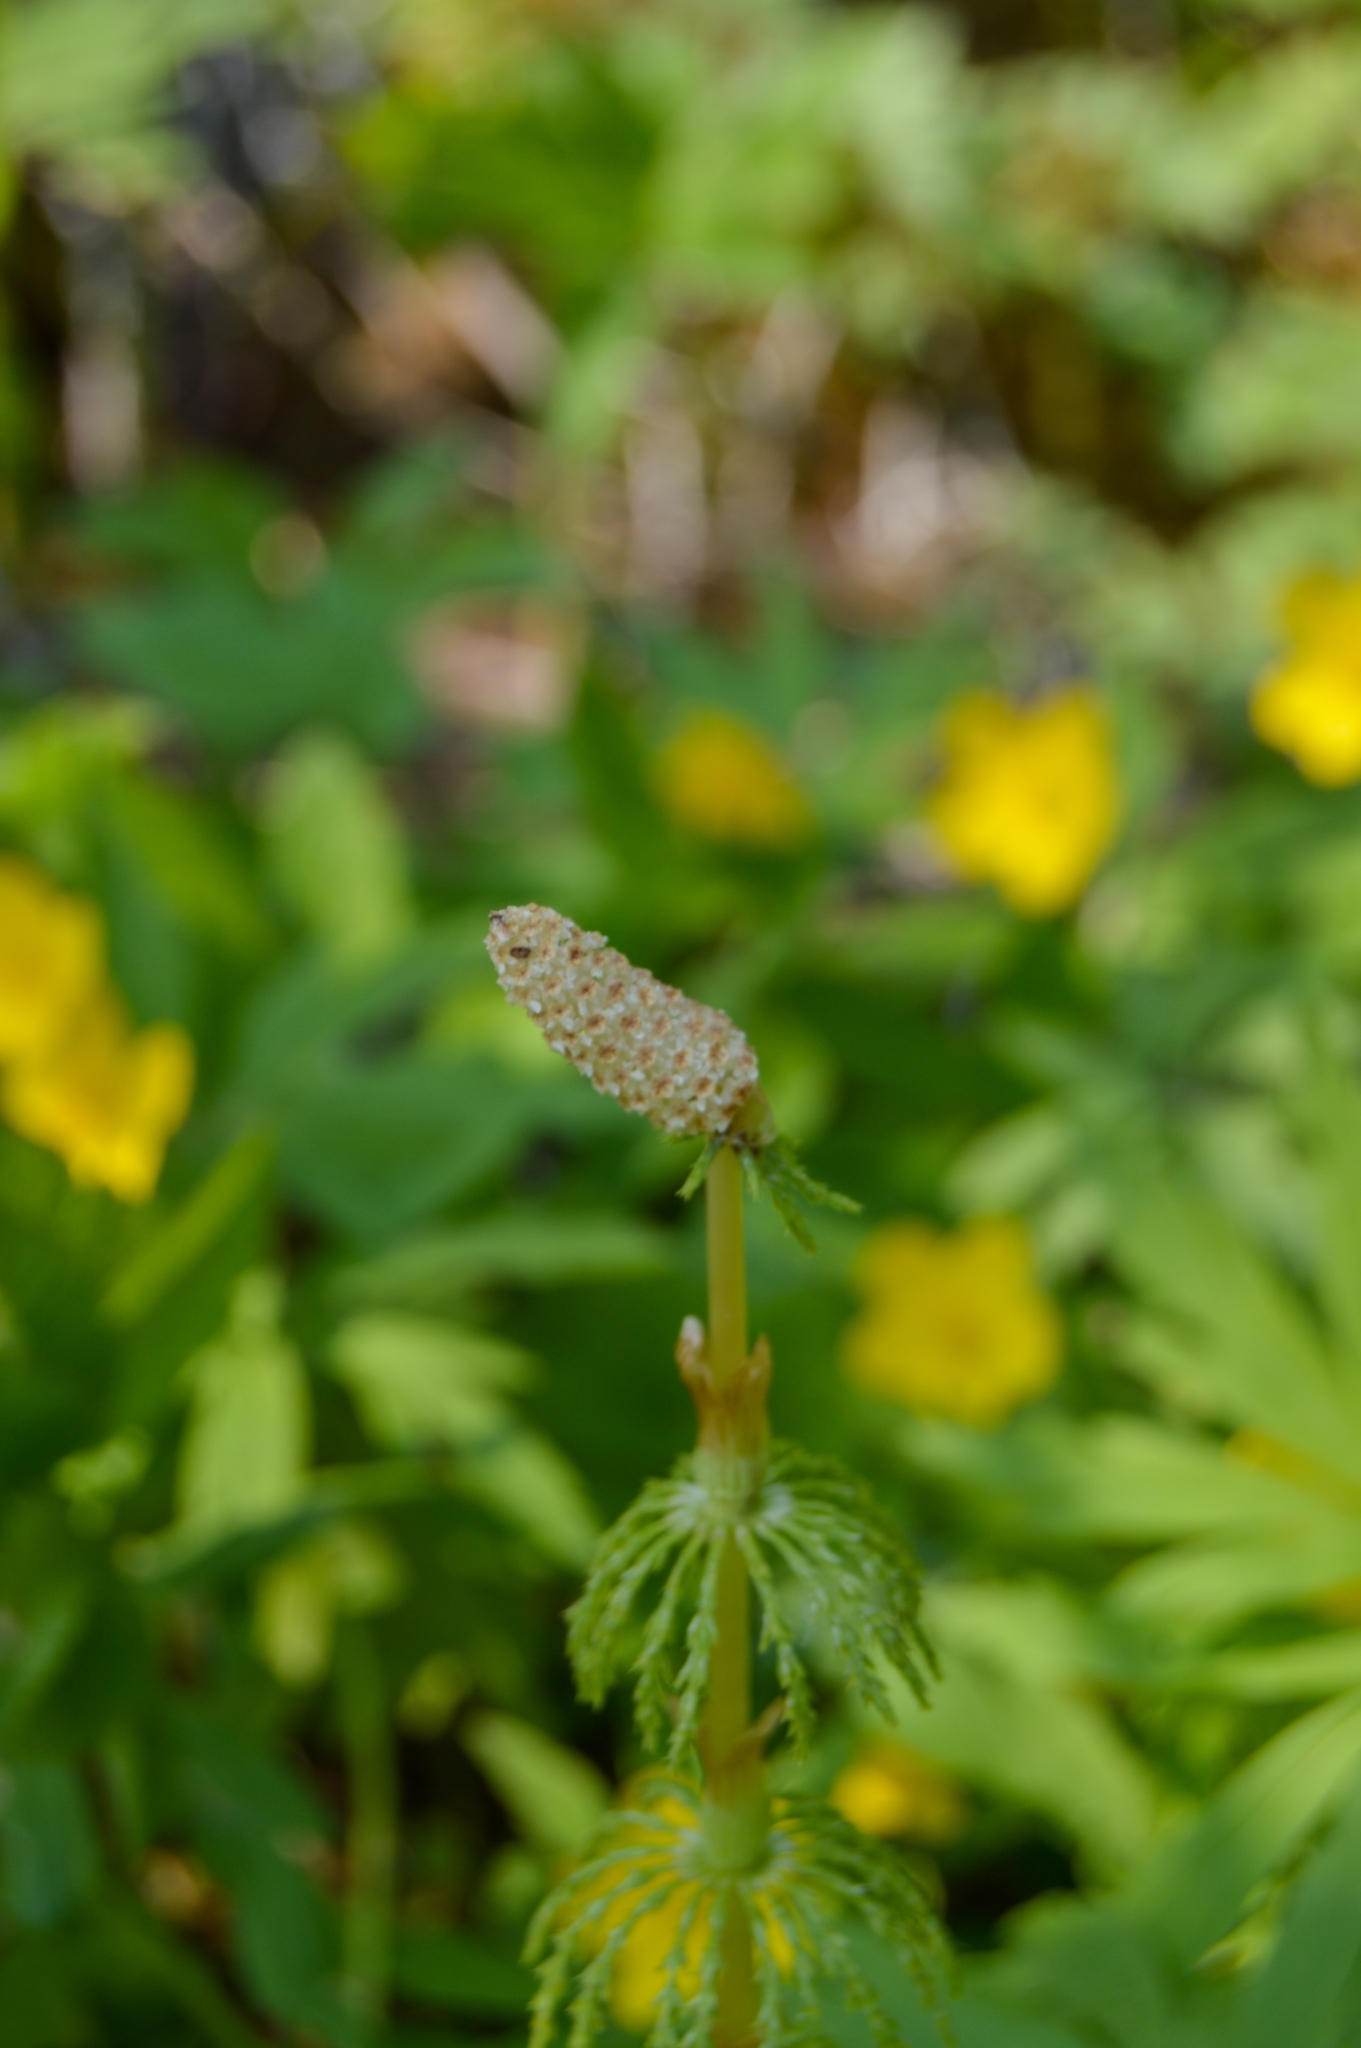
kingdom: Plantae
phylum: Tracheophyta
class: Polypodiopsida
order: Equisetales
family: Equisetaceae
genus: Equisetum
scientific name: Equisetum sylvaticum
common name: Wood horsetail
